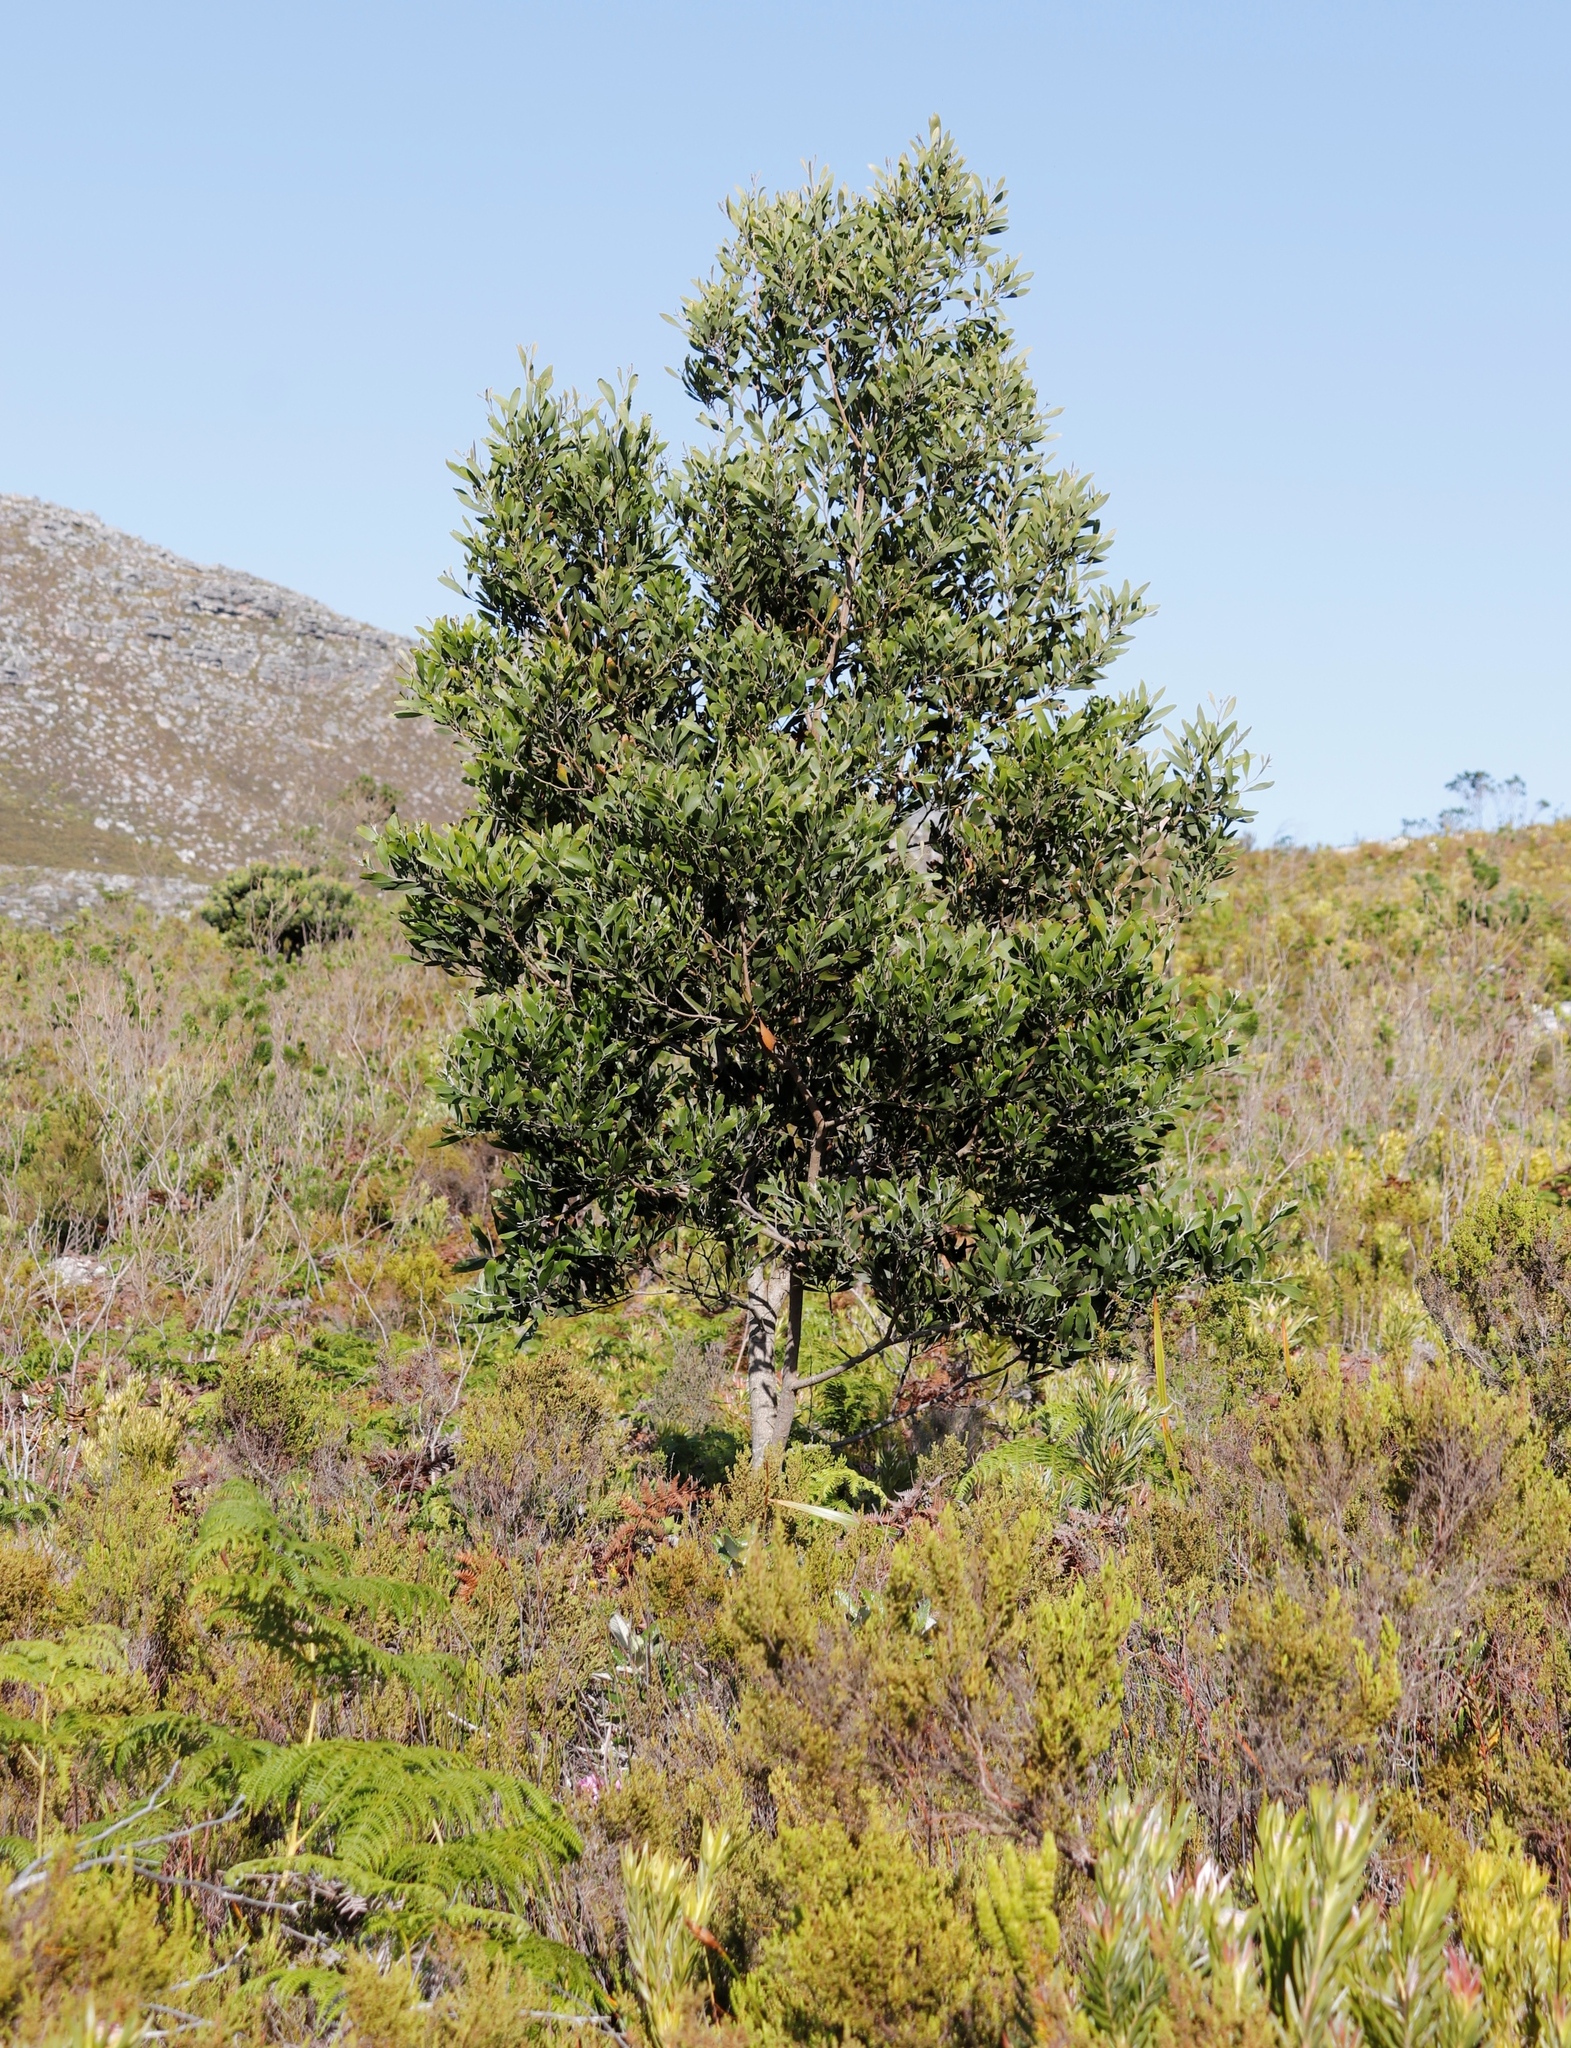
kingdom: Plantae
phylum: Tracheophyta
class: Magnoliopsida
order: Fabales
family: Fabaceae
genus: Acacia
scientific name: Acacia melanoxylon
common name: Blackwood
